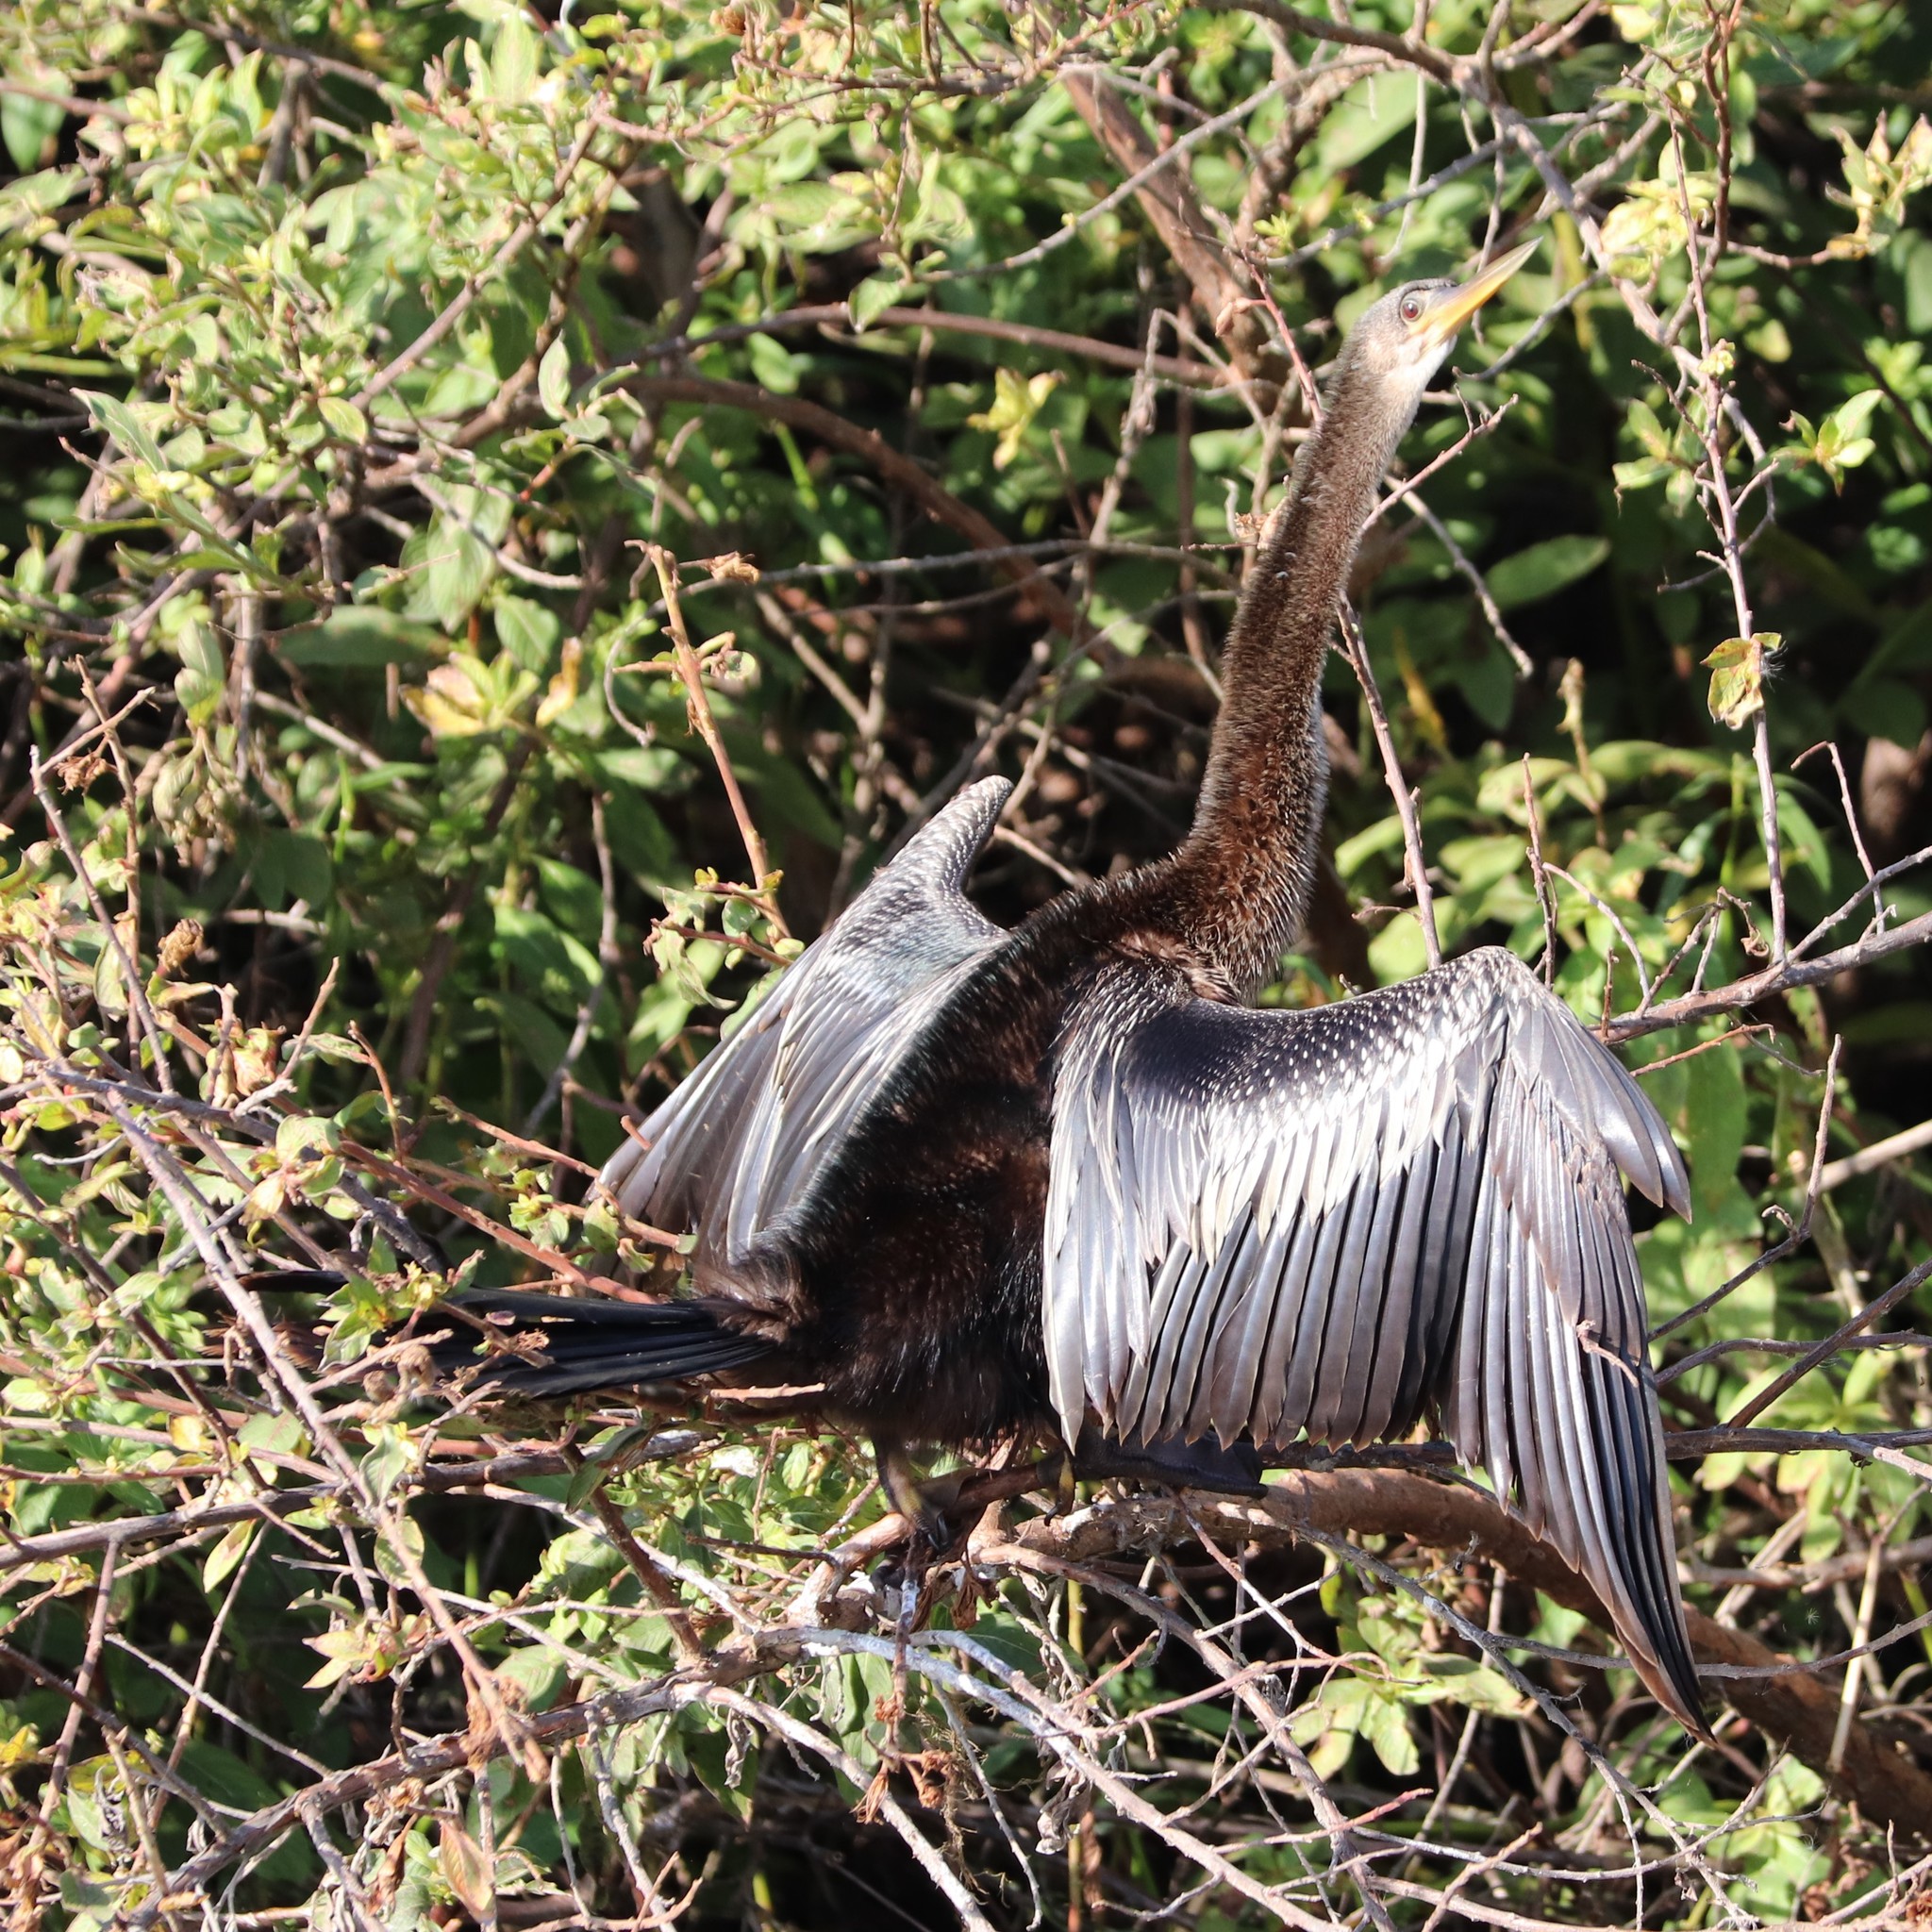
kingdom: Animalia
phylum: Chordata
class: Aves
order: Suliformes
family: Anhingidae
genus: Anhinga
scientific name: Anhinga anhinga
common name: Anhinga
